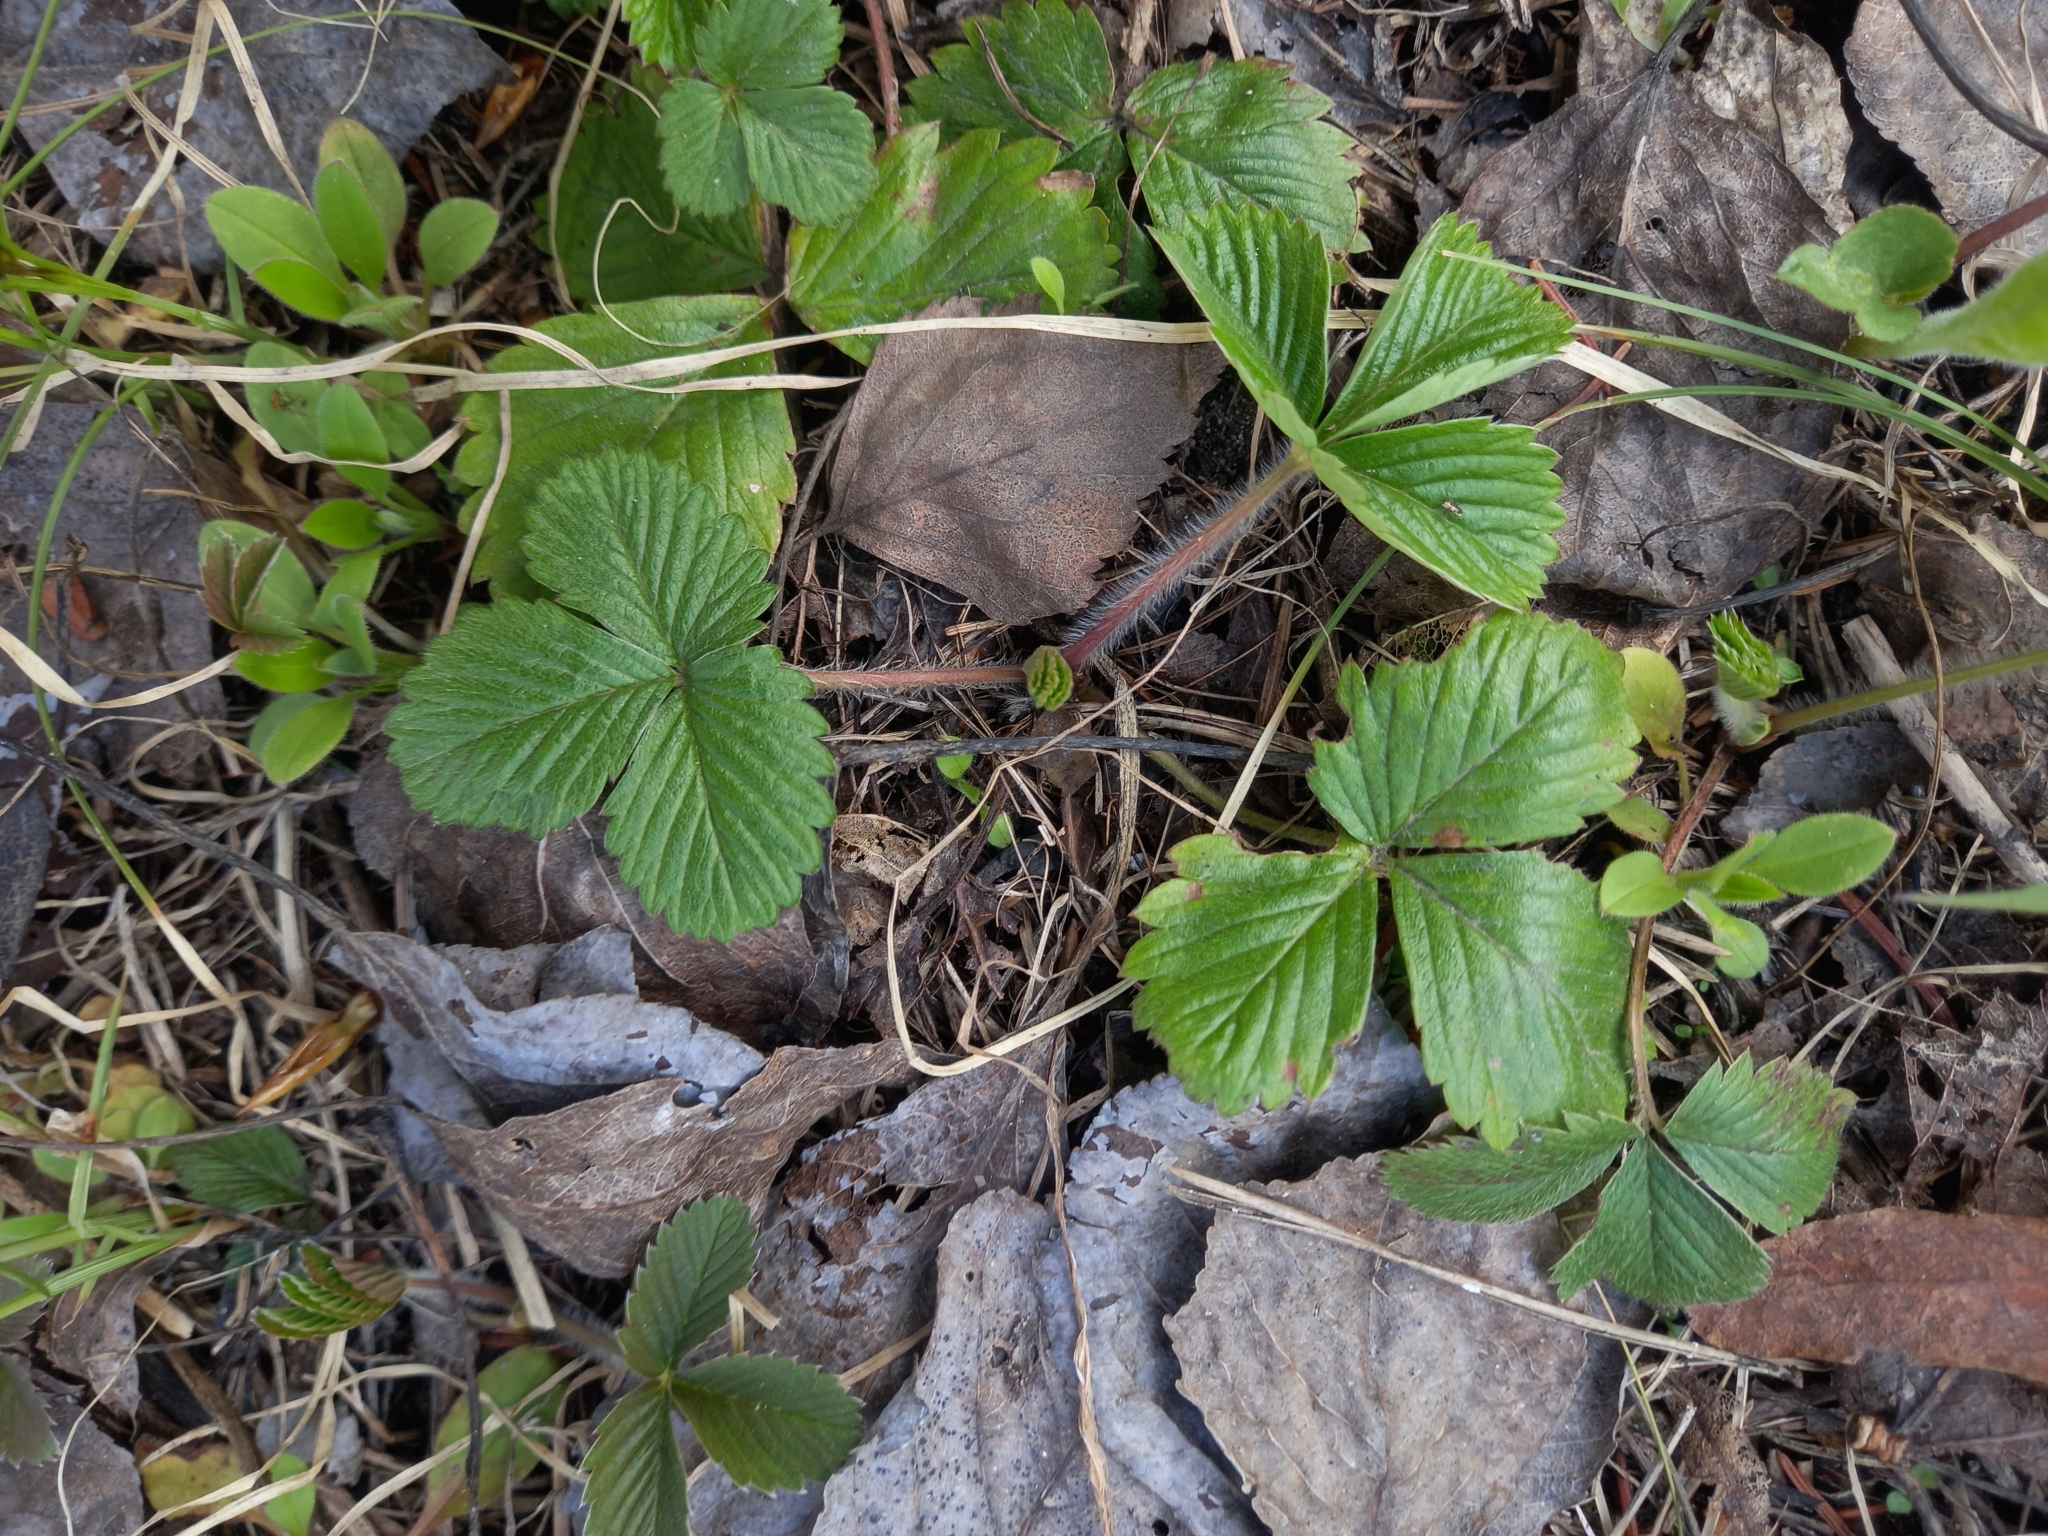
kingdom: Plantae
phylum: Tracheophyta
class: Magnoliopsida
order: Rosales
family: Rosaceae
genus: Fragaria
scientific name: Fragaria vesca
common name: Wild strawberry
